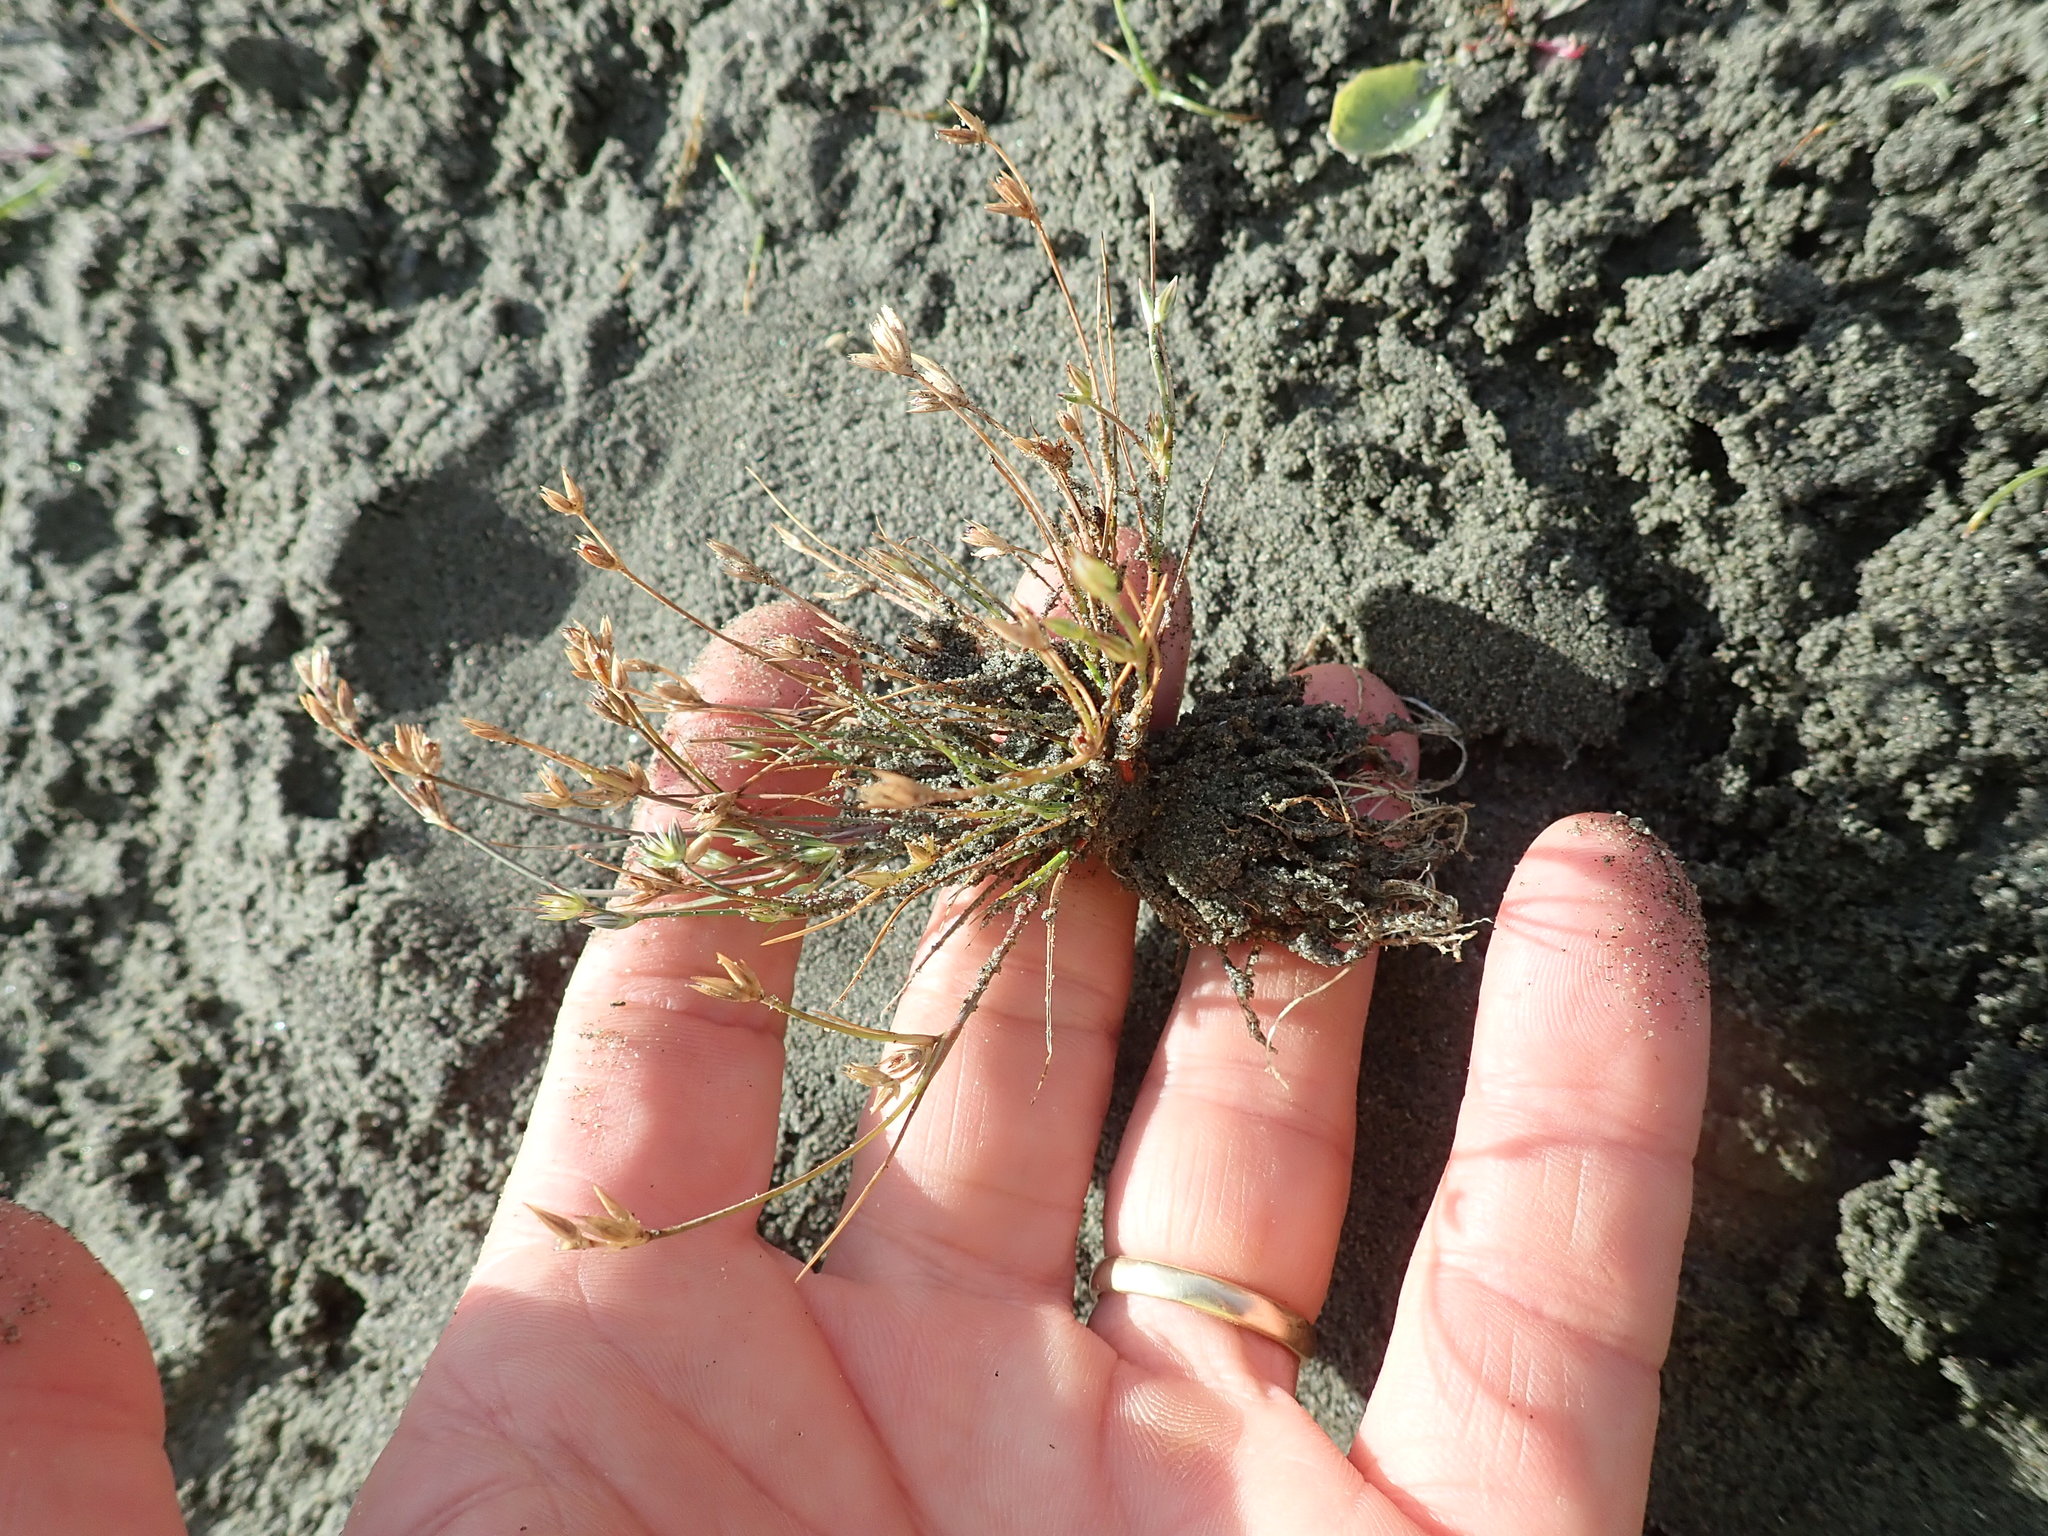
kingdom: Plantae
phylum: Tracheophyta
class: Liliopsida
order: Poales
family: Juncaceae
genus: Juncus
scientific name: Juncus bufonius
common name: Toad rush
